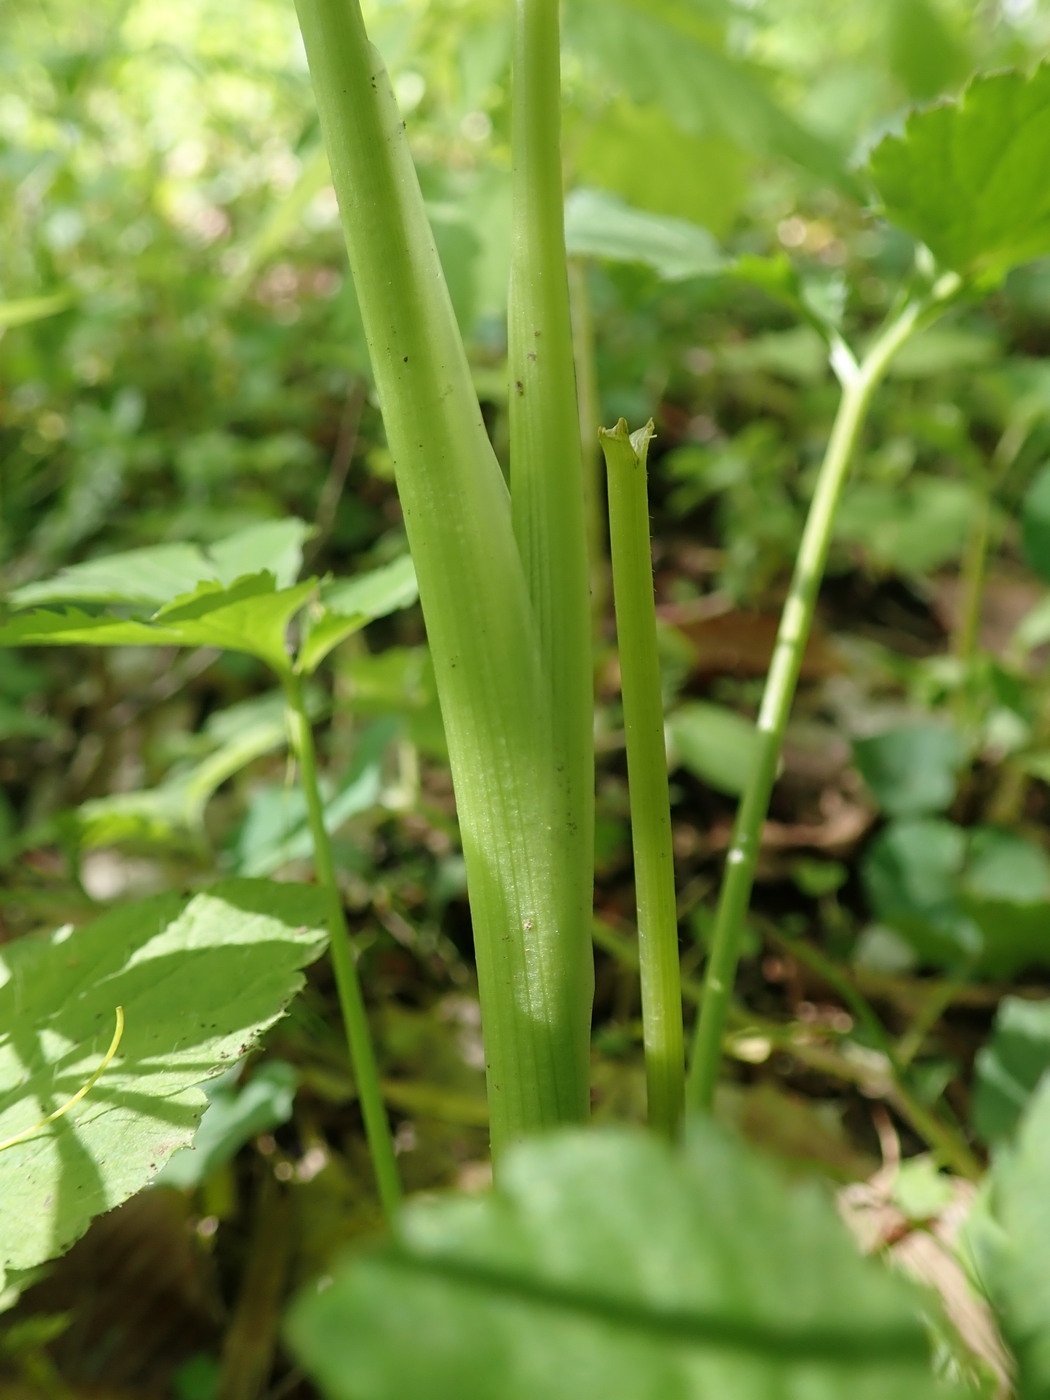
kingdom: Plantae
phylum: Tracheophyta
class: Magnoliopsida
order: Apiales
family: Apiaceae
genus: Cryptotaenia
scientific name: Cryptotaenia canadensis
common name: Honewort
